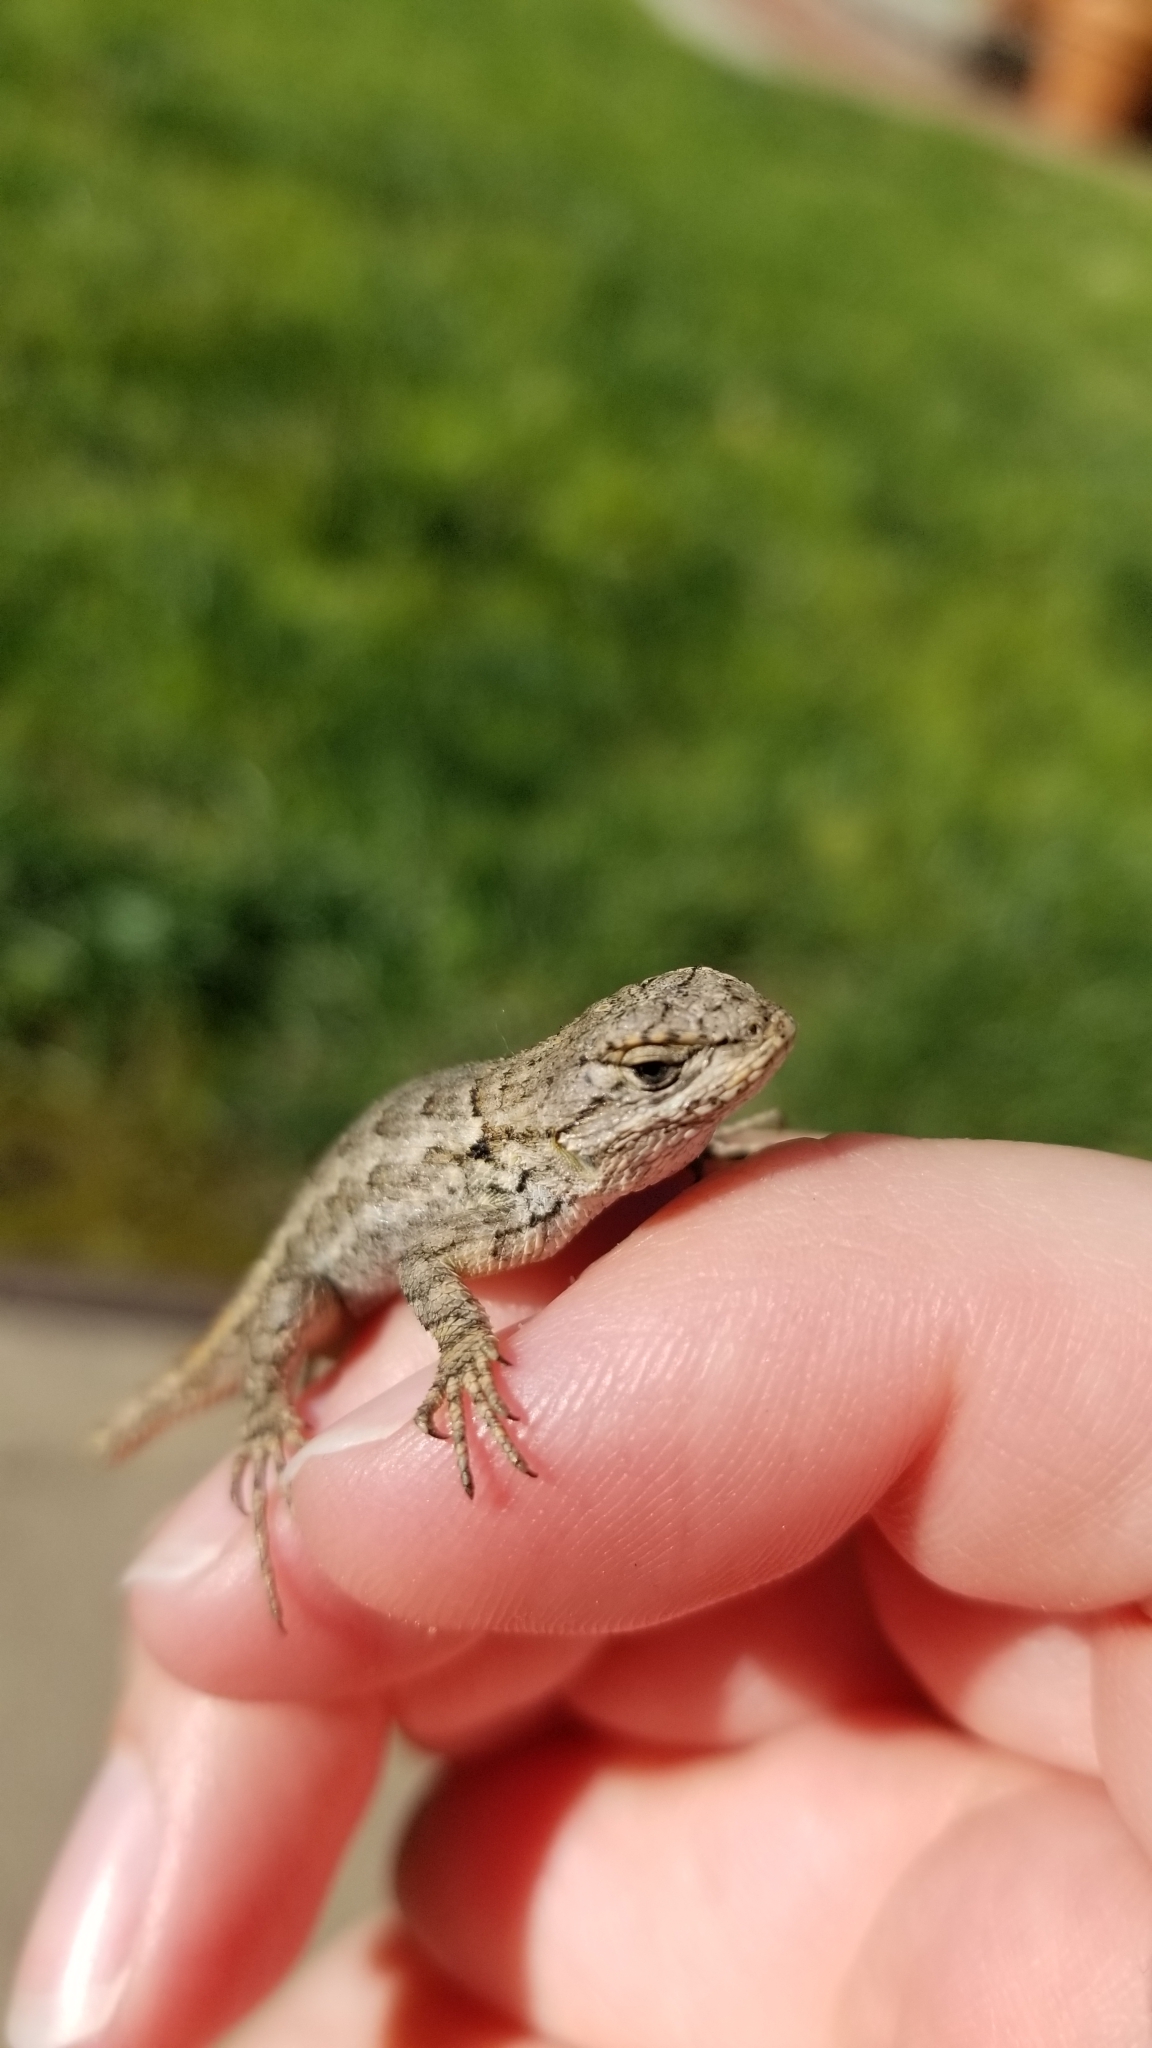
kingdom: Animalia
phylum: Chordata
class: Squamata
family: Phrynosomatidae
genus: Sceloporus
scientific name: Sceloporus occidentalis
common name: Western fence lizard
